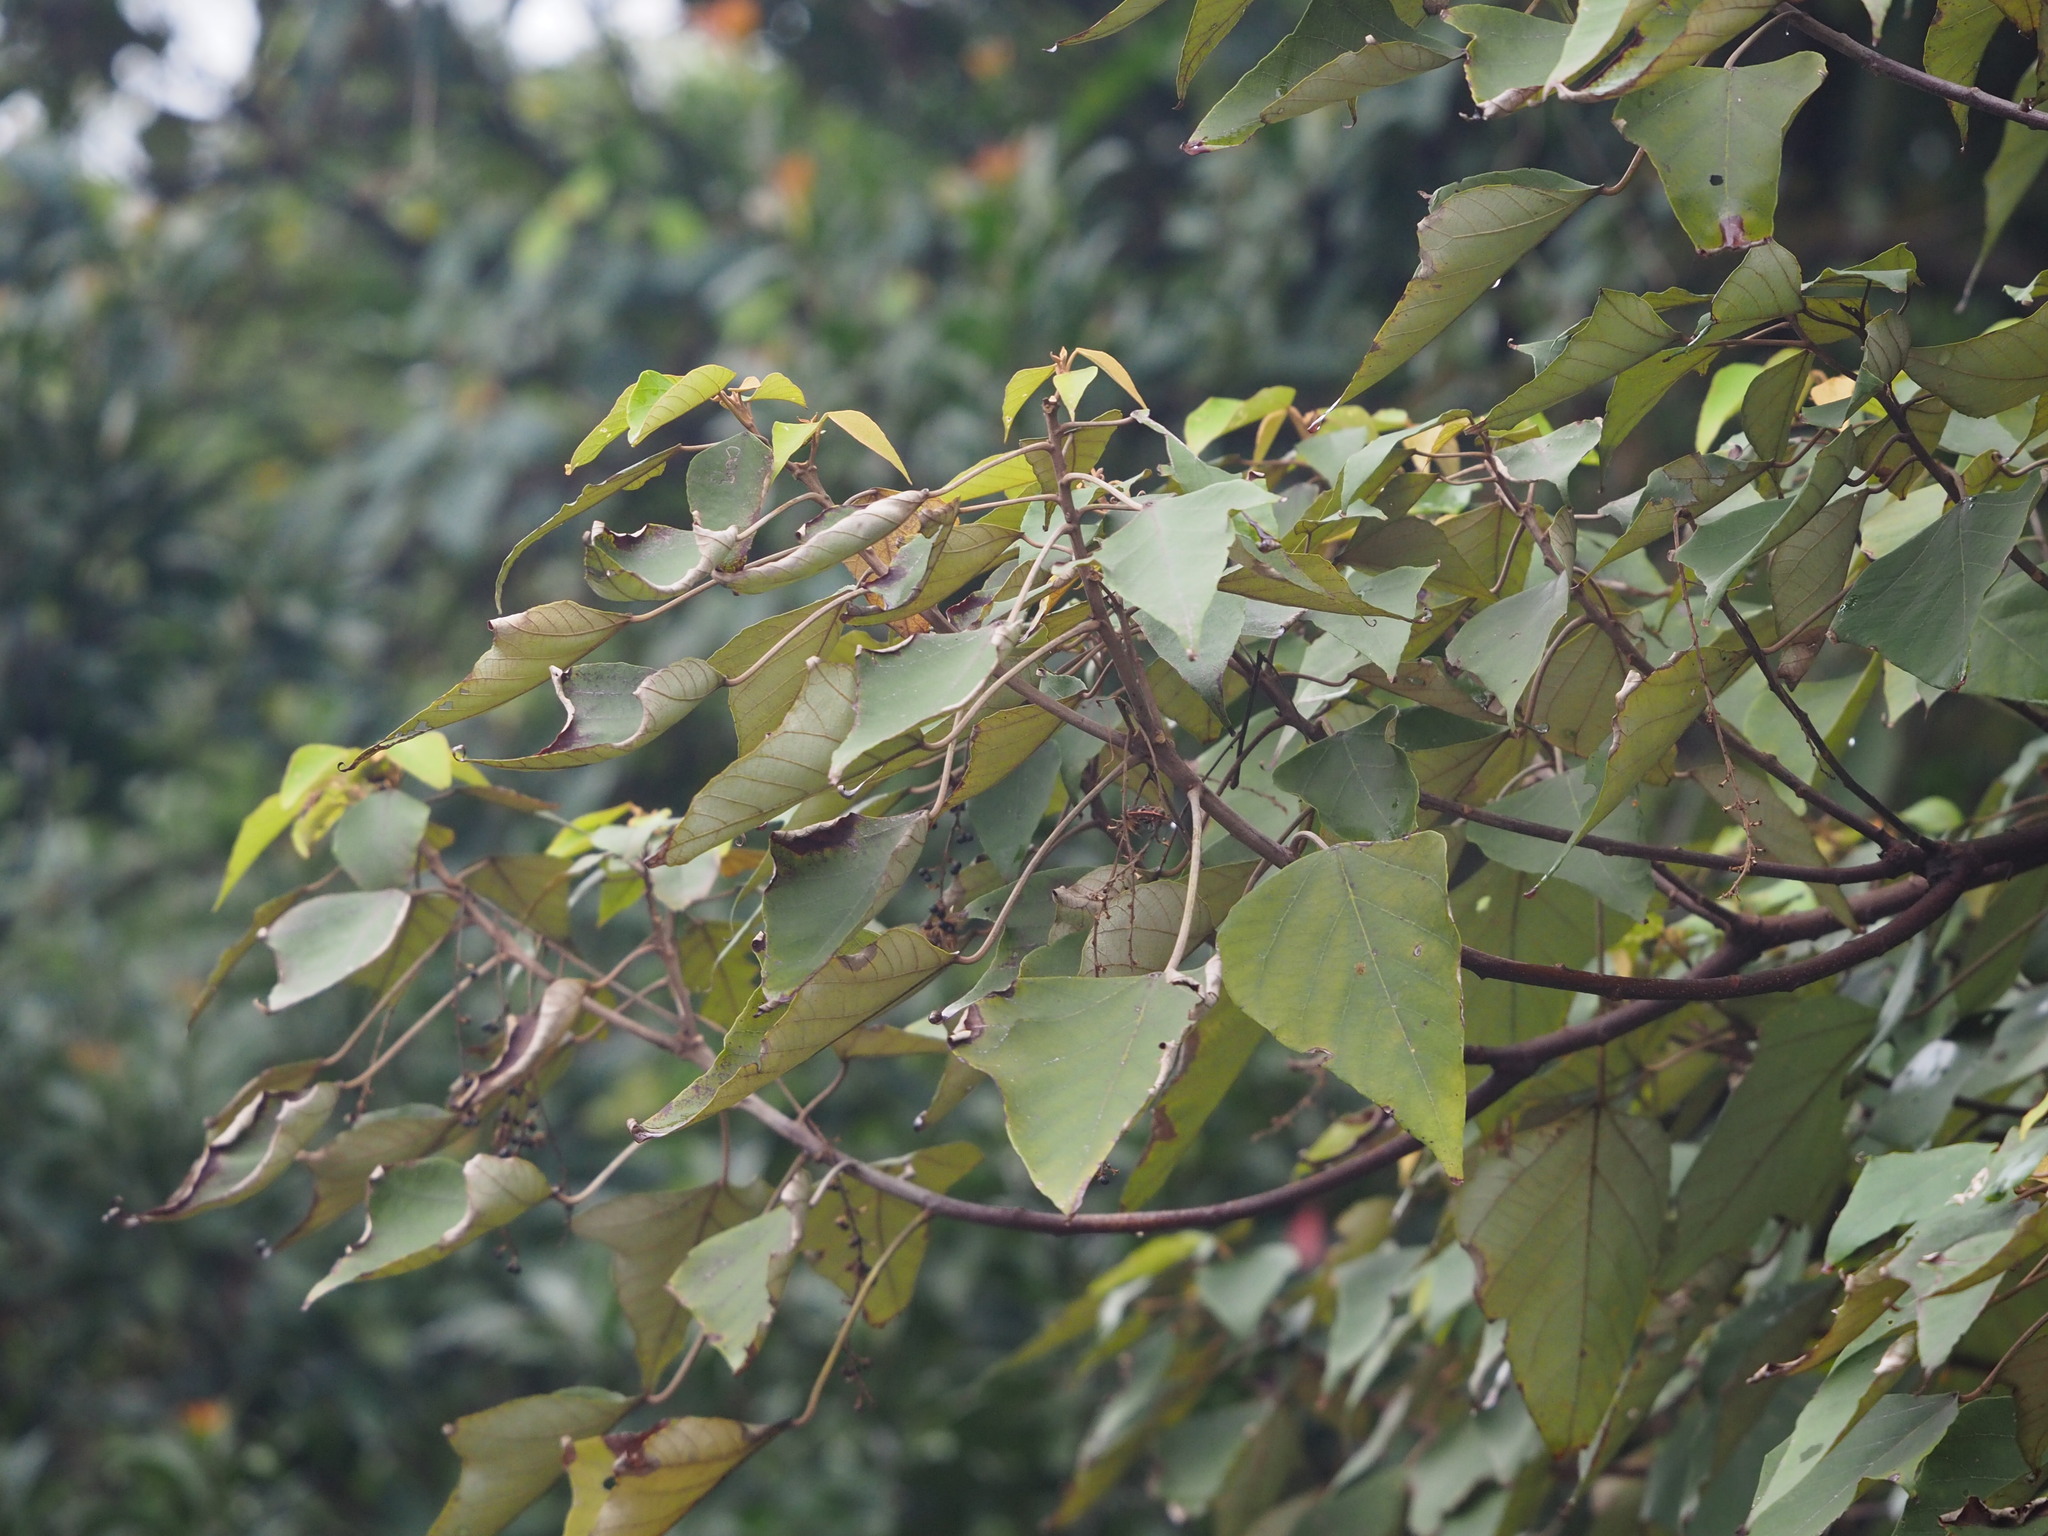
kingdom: Plantae
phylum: Tracheophyta
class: Magnoliopsida
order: Malpighiales
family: Euphorbiaceae
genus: Mallotus
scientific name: Mallotus paniculatus
